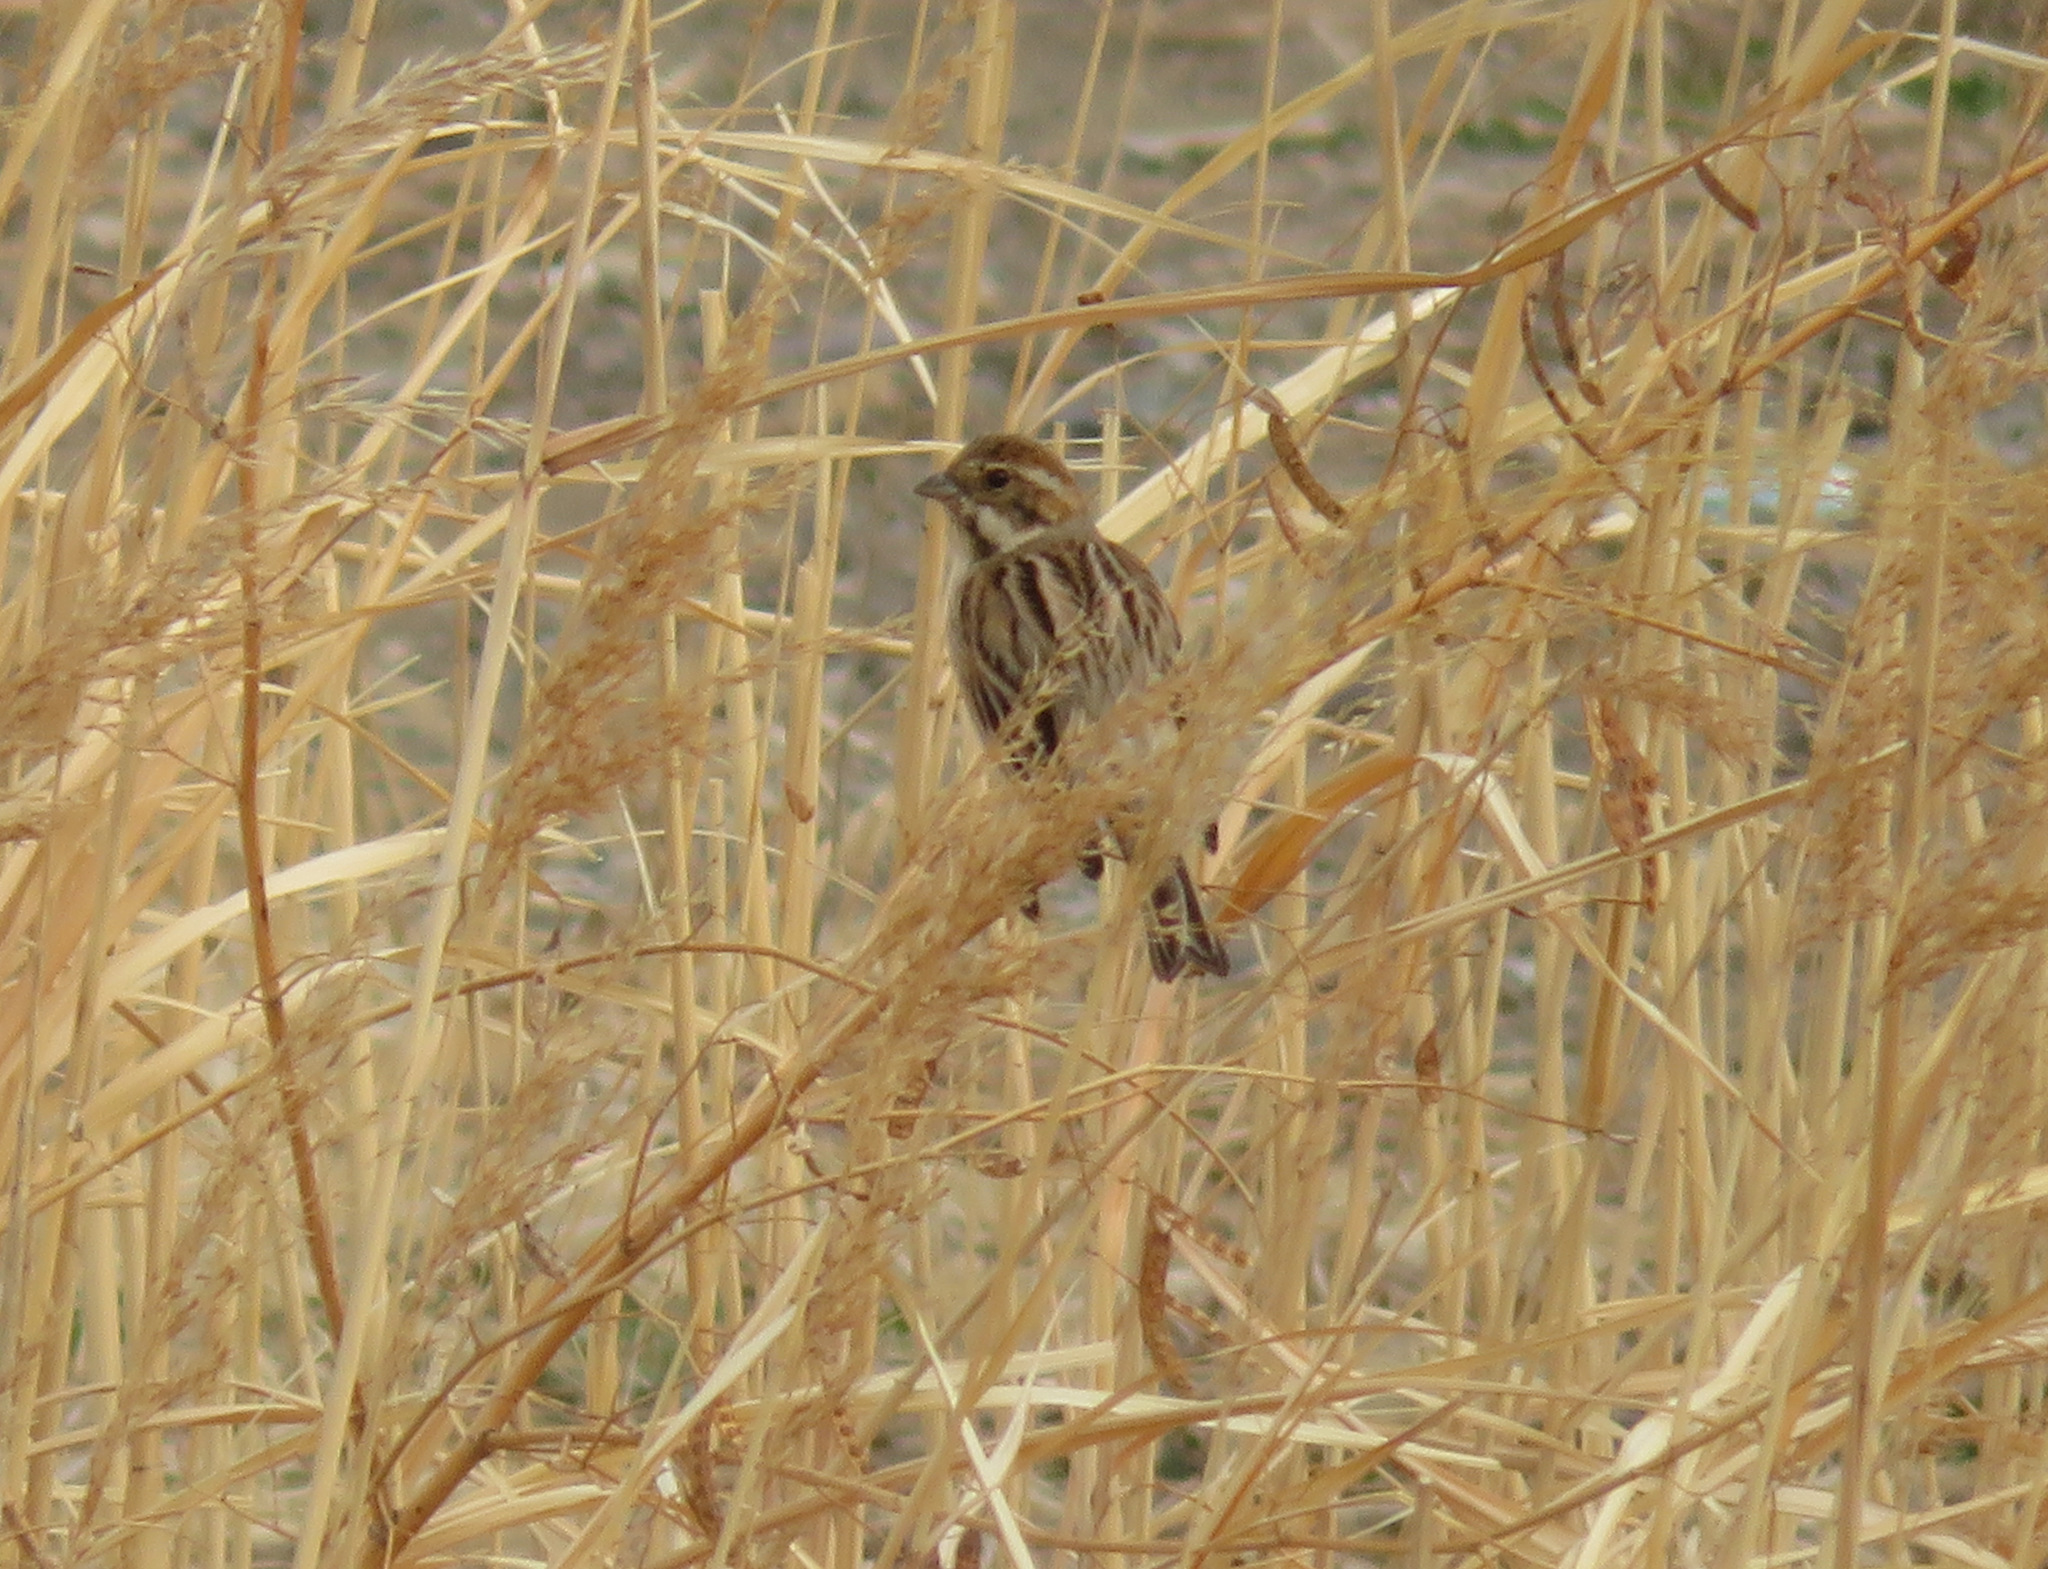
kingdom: Animalia
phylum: Chordata
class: Aves
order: Passeriformes
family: Emberizidae
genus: Emberiza
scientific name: Emberiza schoeniclus
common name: Reed bunting
